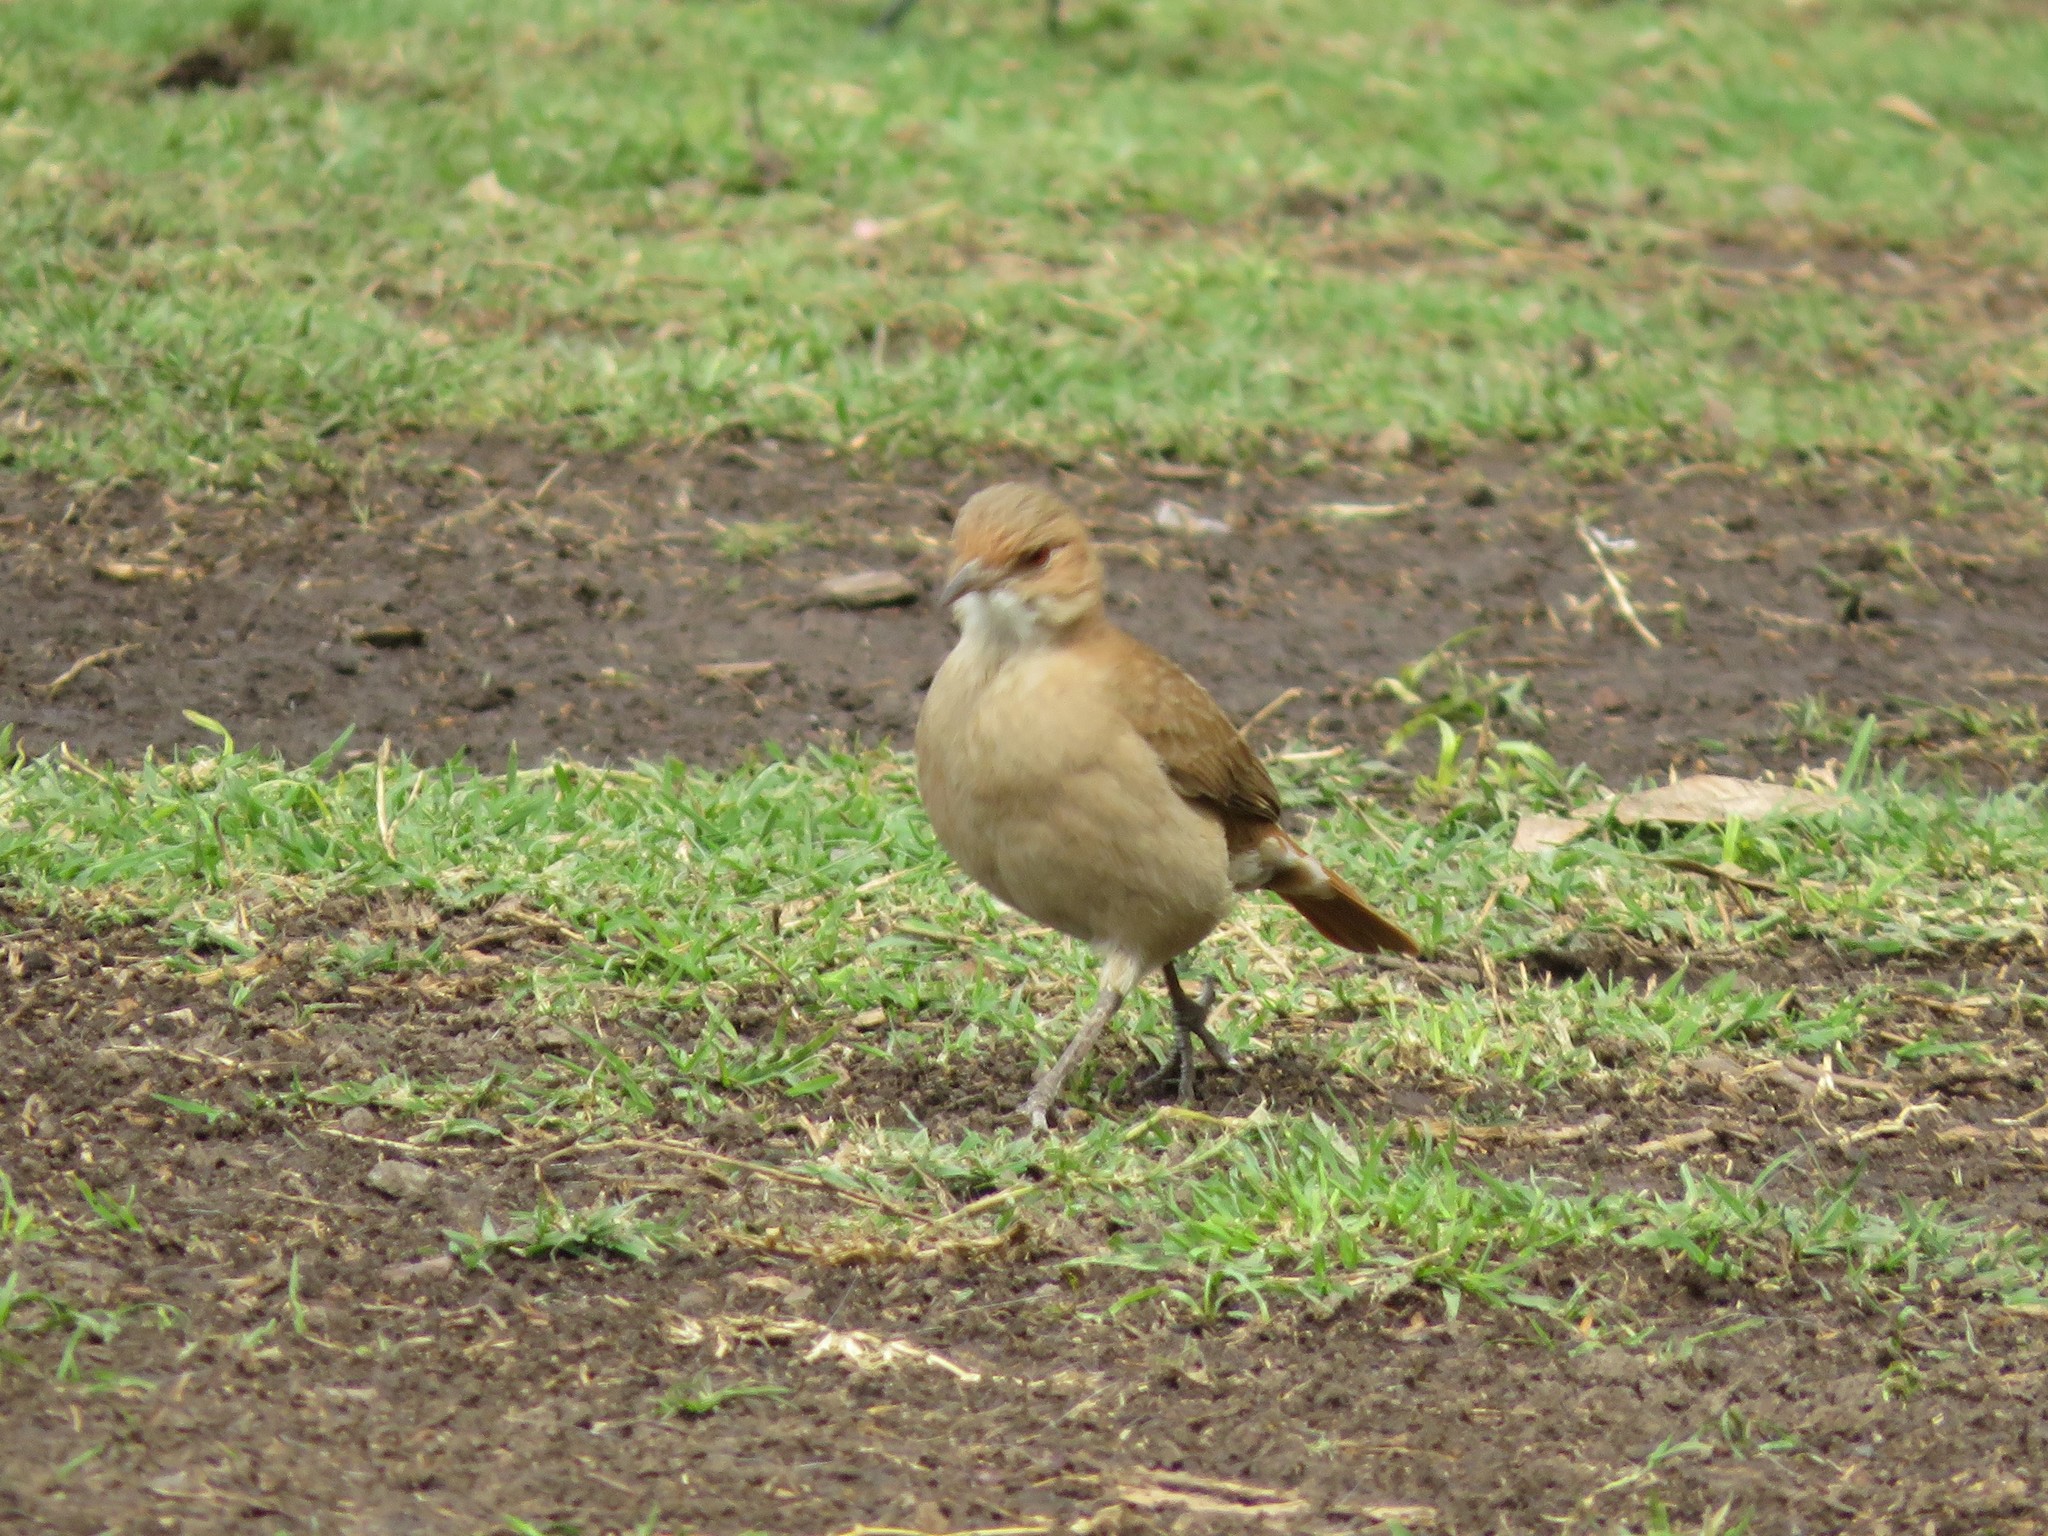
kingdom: Animalia
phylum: Chordata
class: Aves
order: Passeriformes
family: Furnariidae
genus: Furnarius
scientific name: Furnarius rufus
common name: Rufous hornero
